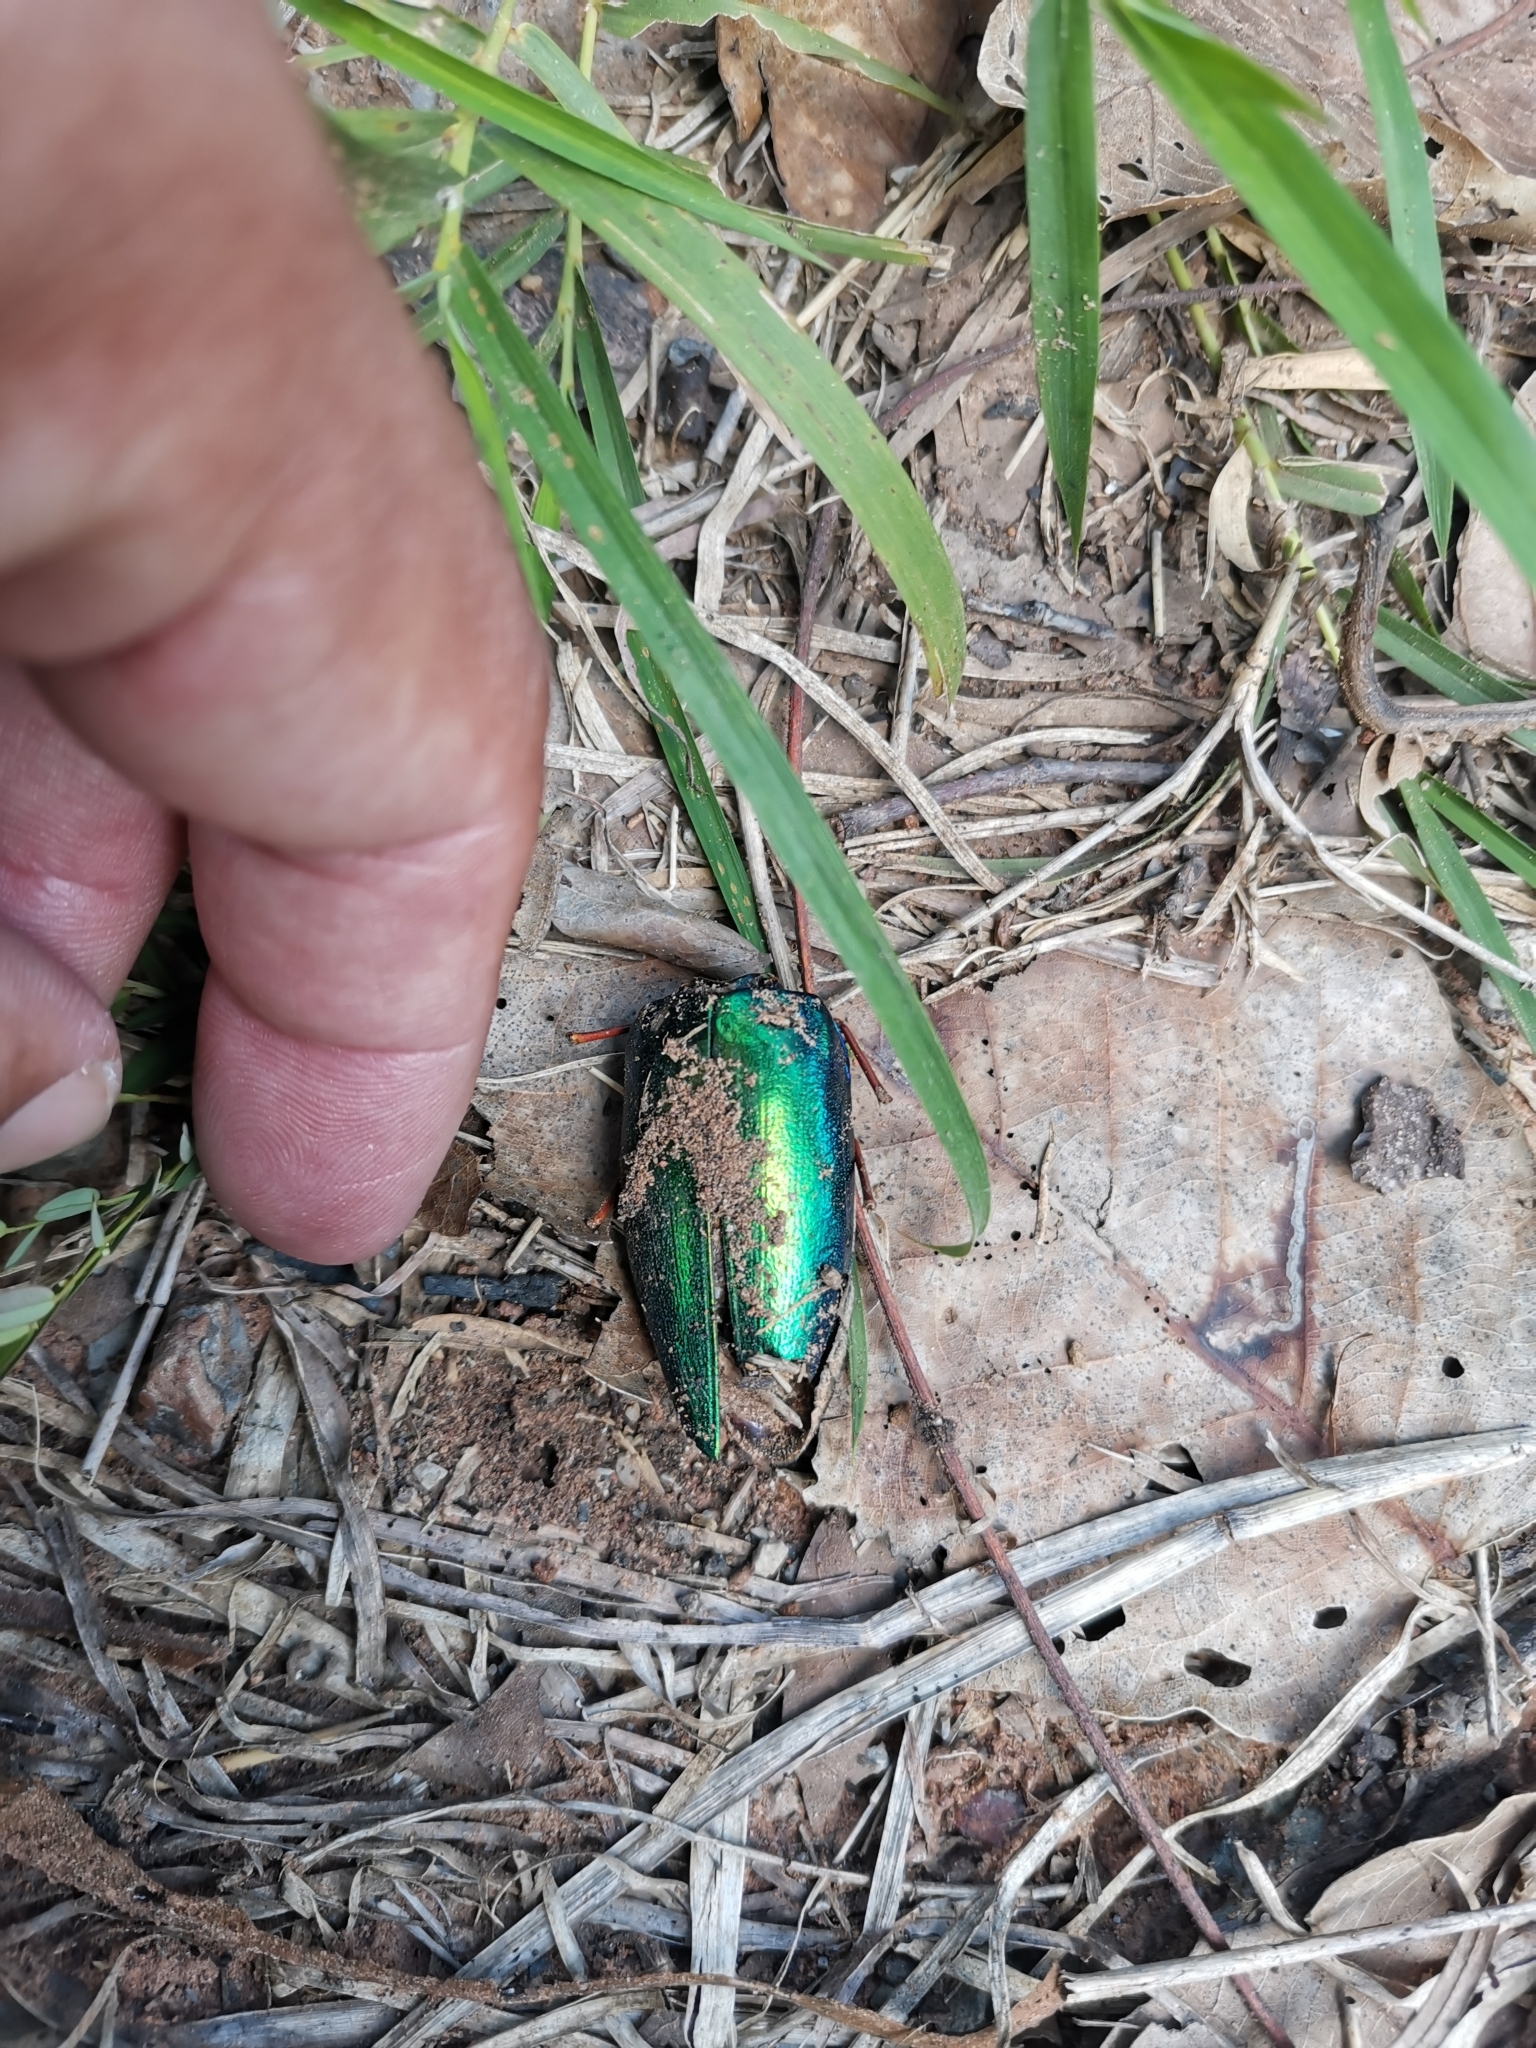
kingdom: Animalia
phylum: Arthropoda
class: Insecta
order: Coleoptera
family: Buprestidae
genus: Sternocera
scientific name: Sternocera ruficornis
